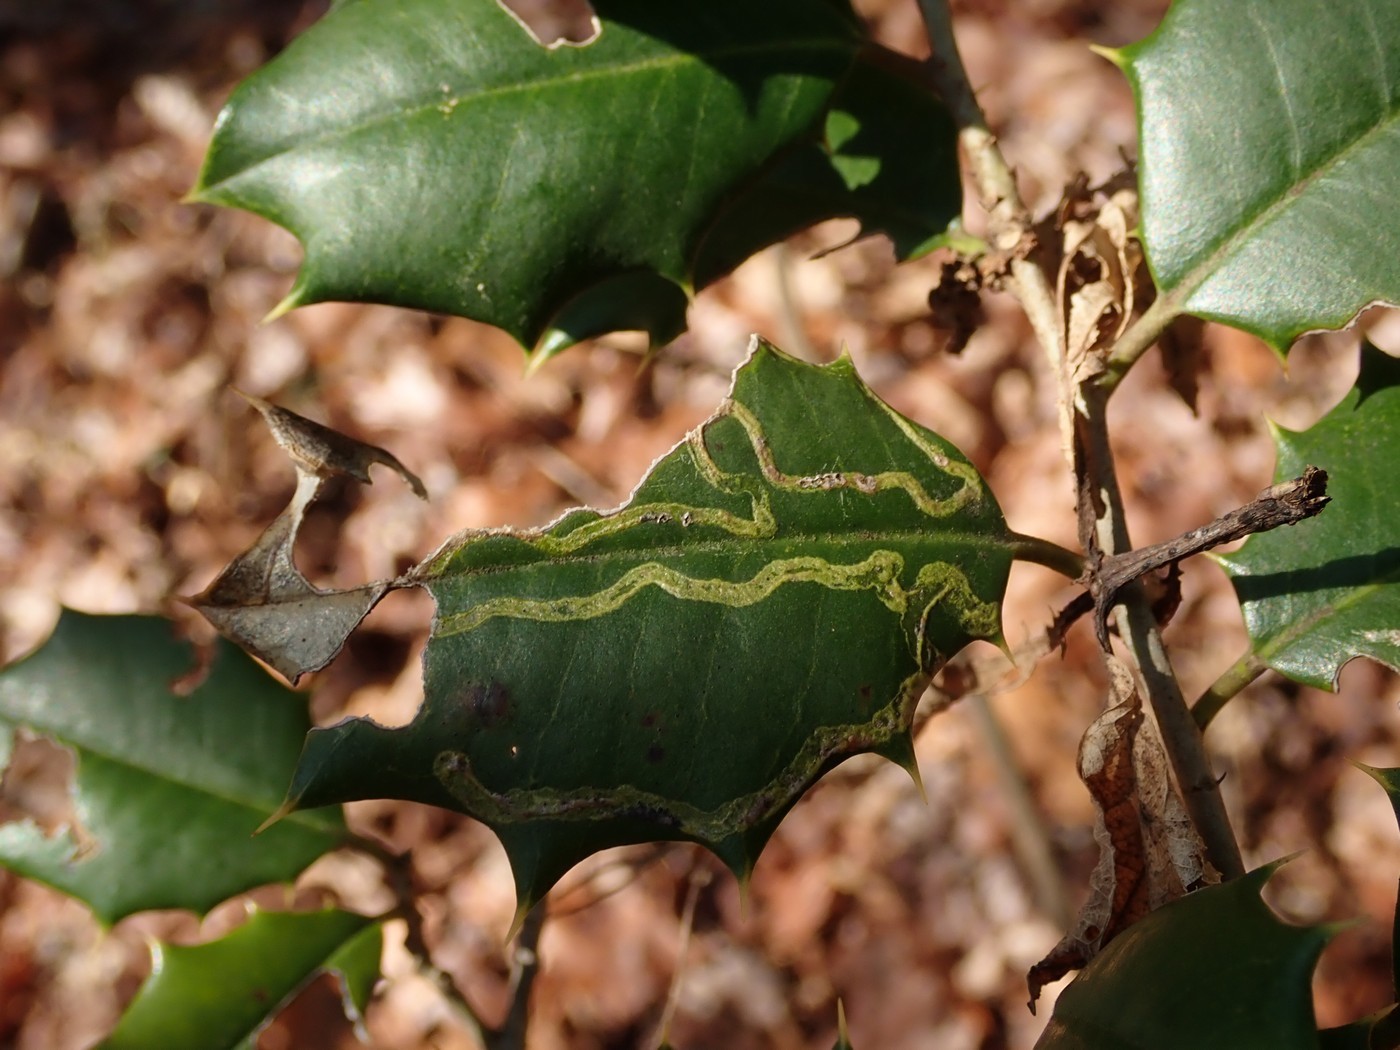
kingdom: Animalia
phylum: Arthropoda
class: Insecta
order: Diptera
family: Agromyzidae
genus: Phytomyza
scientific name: Phytomyza opacae
